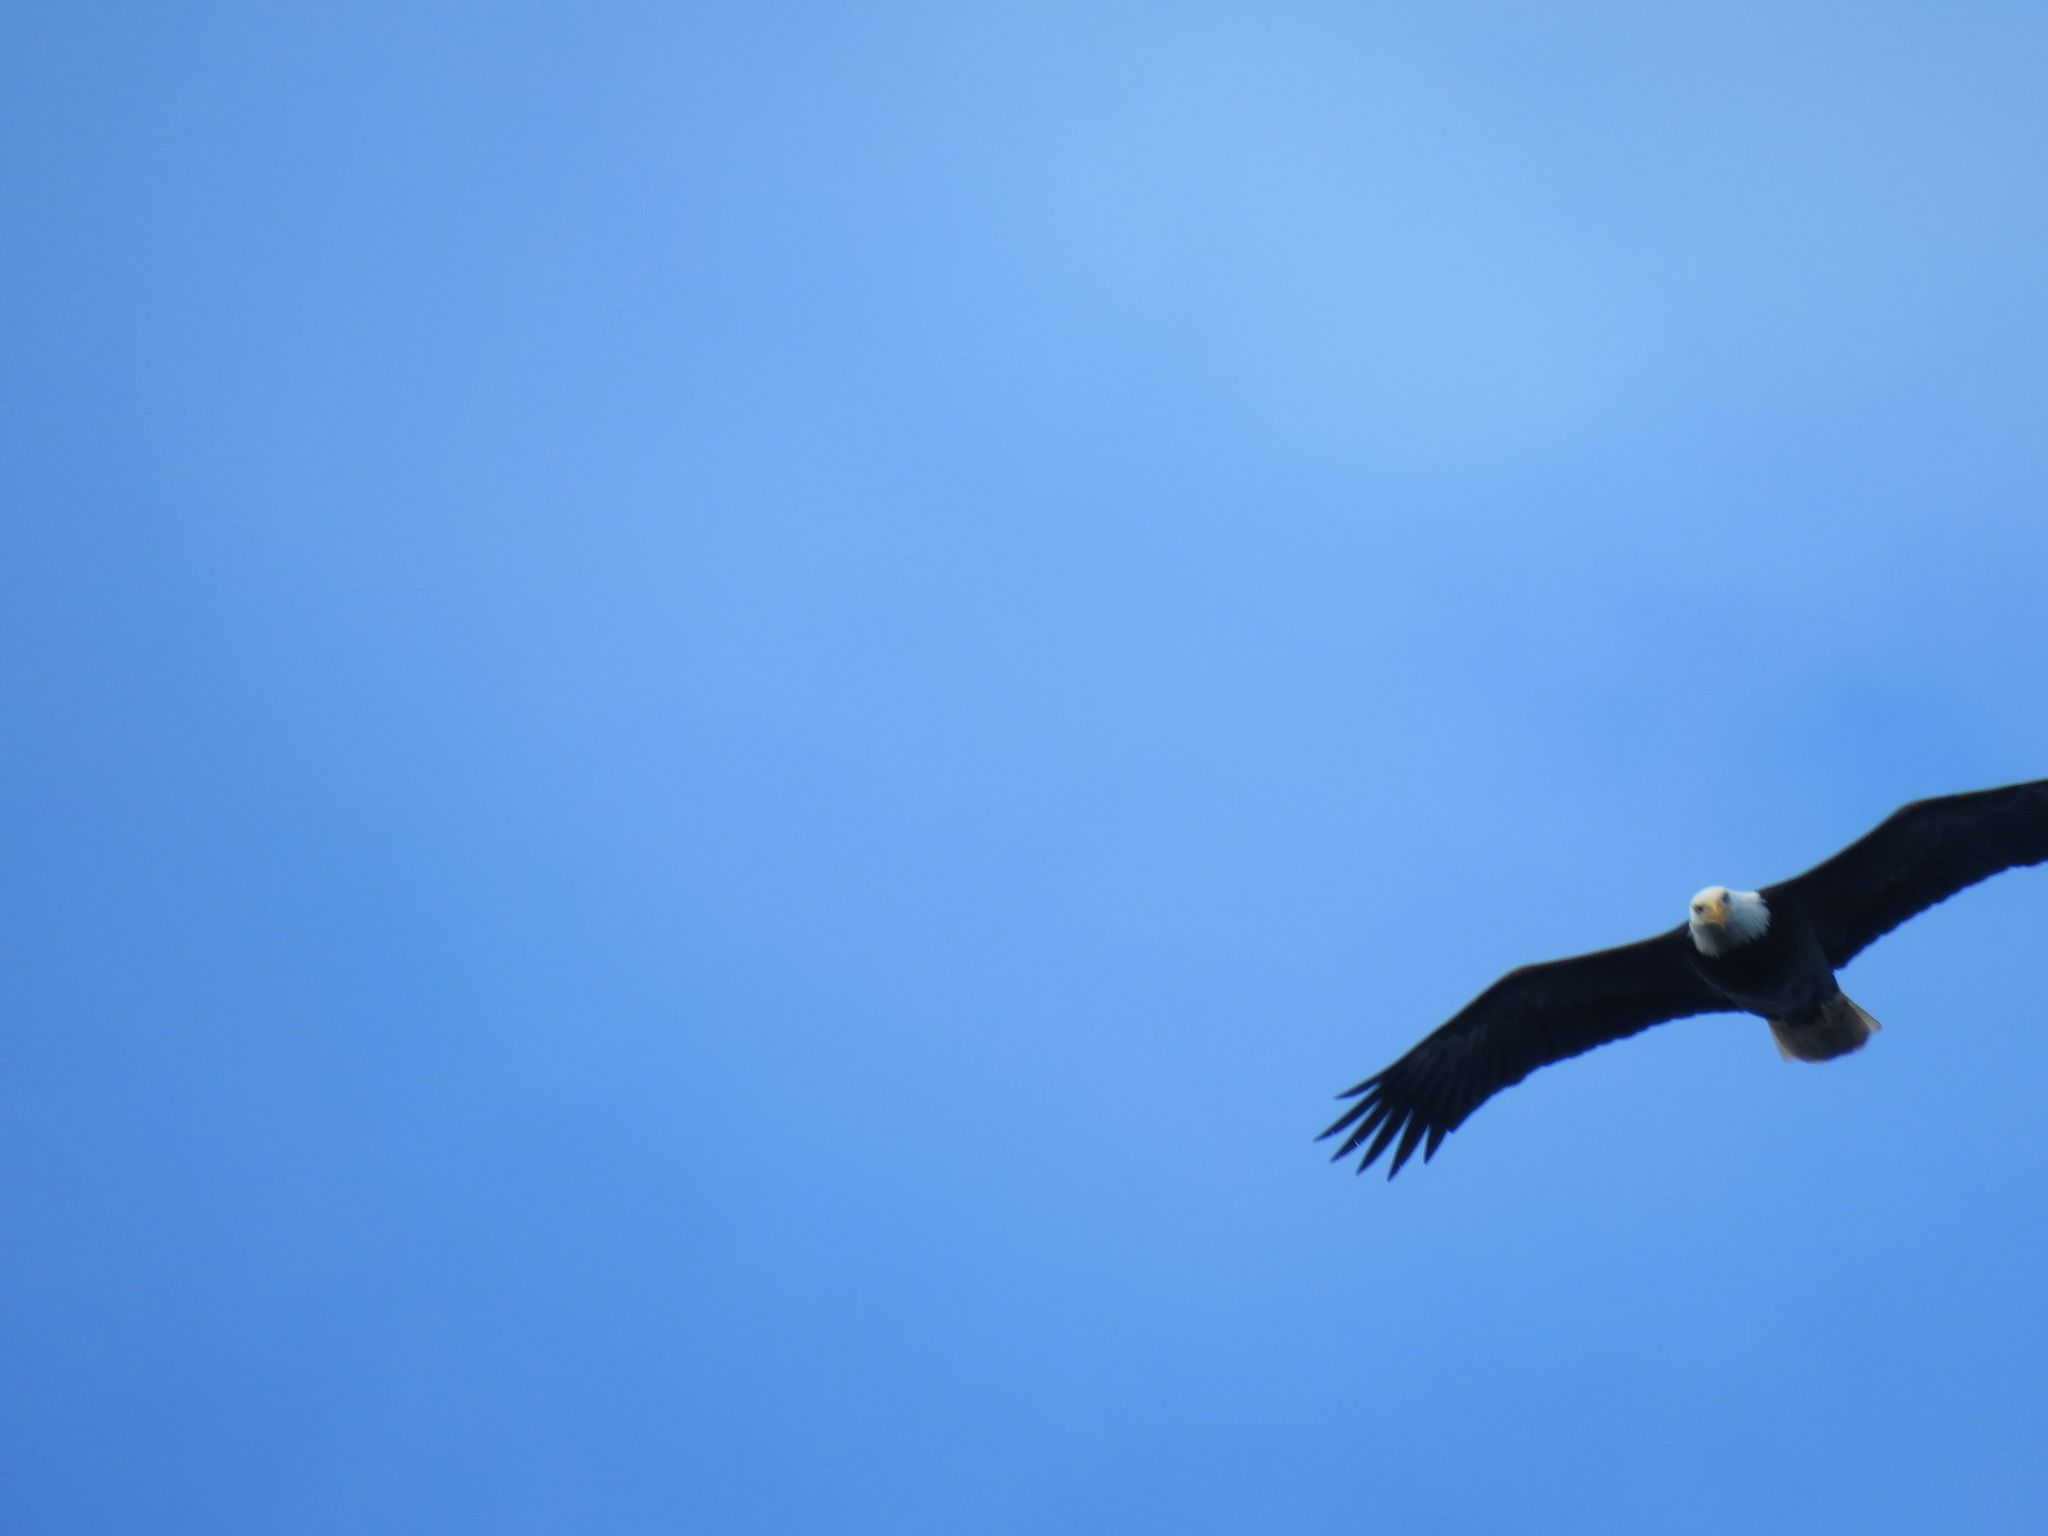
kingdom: Animalia
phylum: Chordata
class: Aves
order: Accipitriformes
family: Accipitridae
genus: Haliaeetus
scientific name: Haliaeetus leucocephalus
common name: Bald eagle
